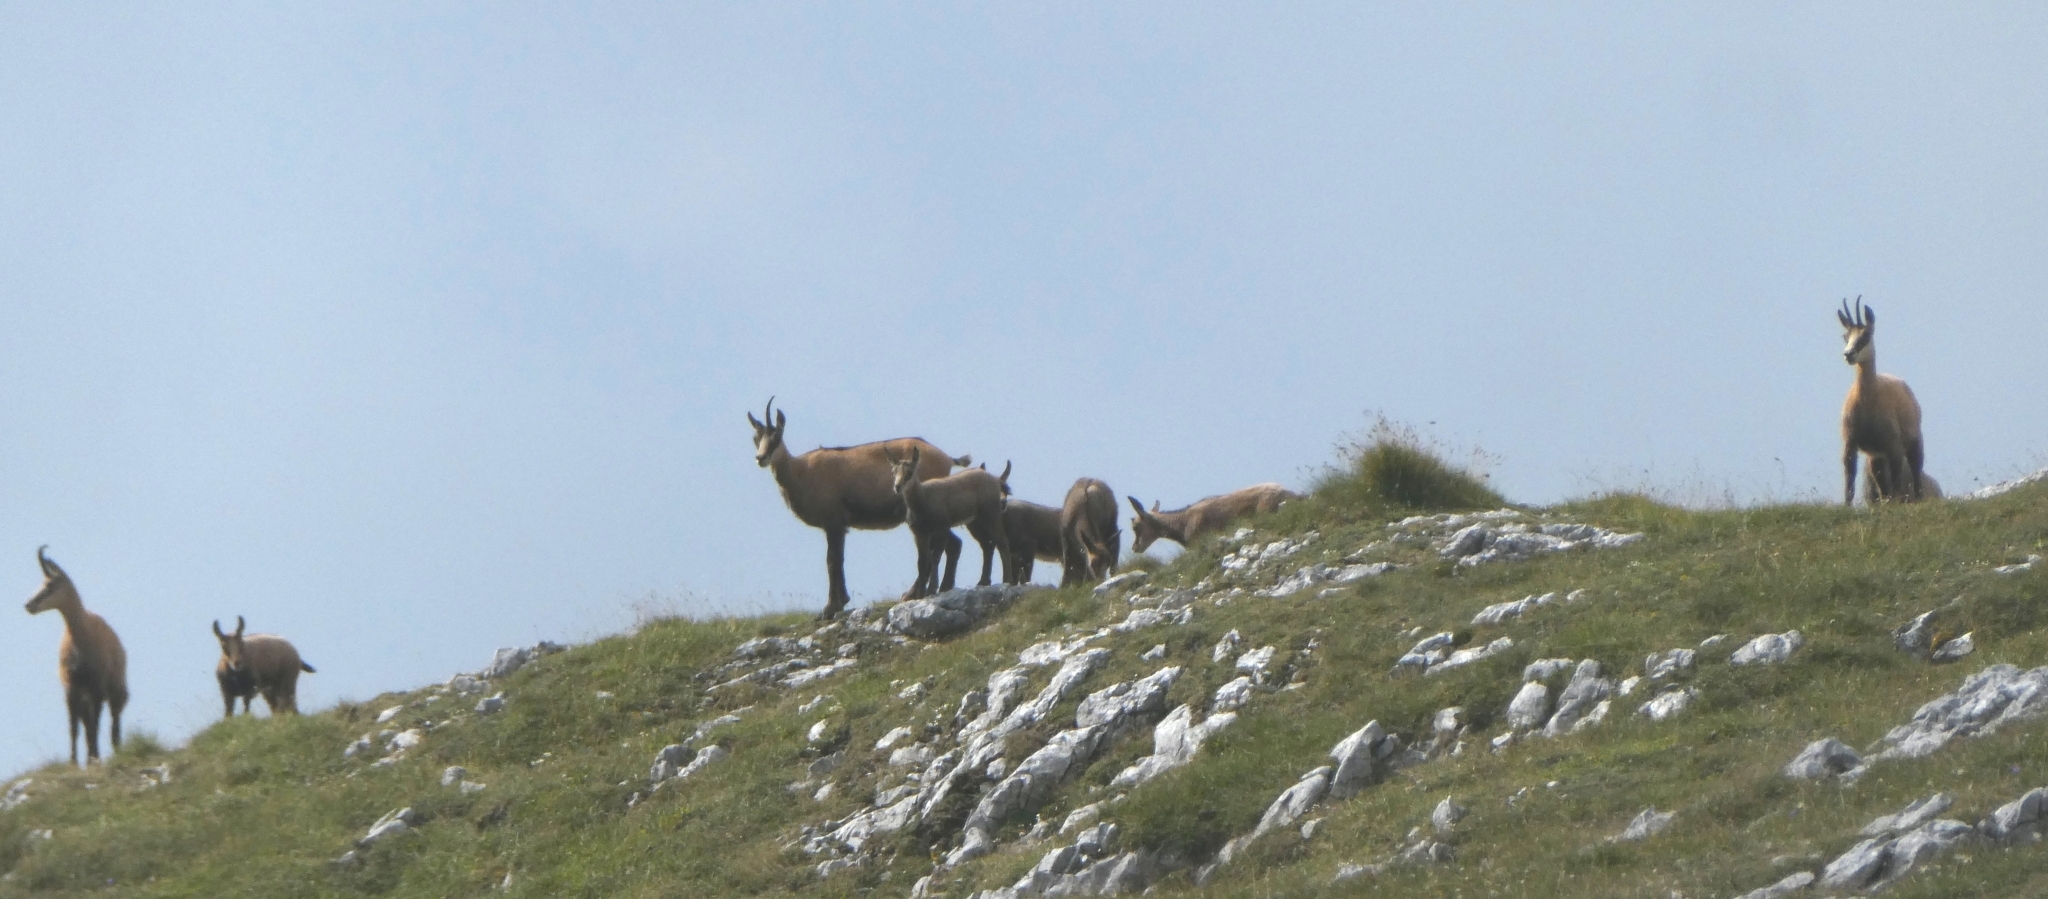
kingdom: Animalia
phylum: Chordata
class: Mammalia
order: Artiodactyla
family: Bovidae
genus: Rupicapra
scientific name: Rupicapra rupicapra
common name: Chamois
